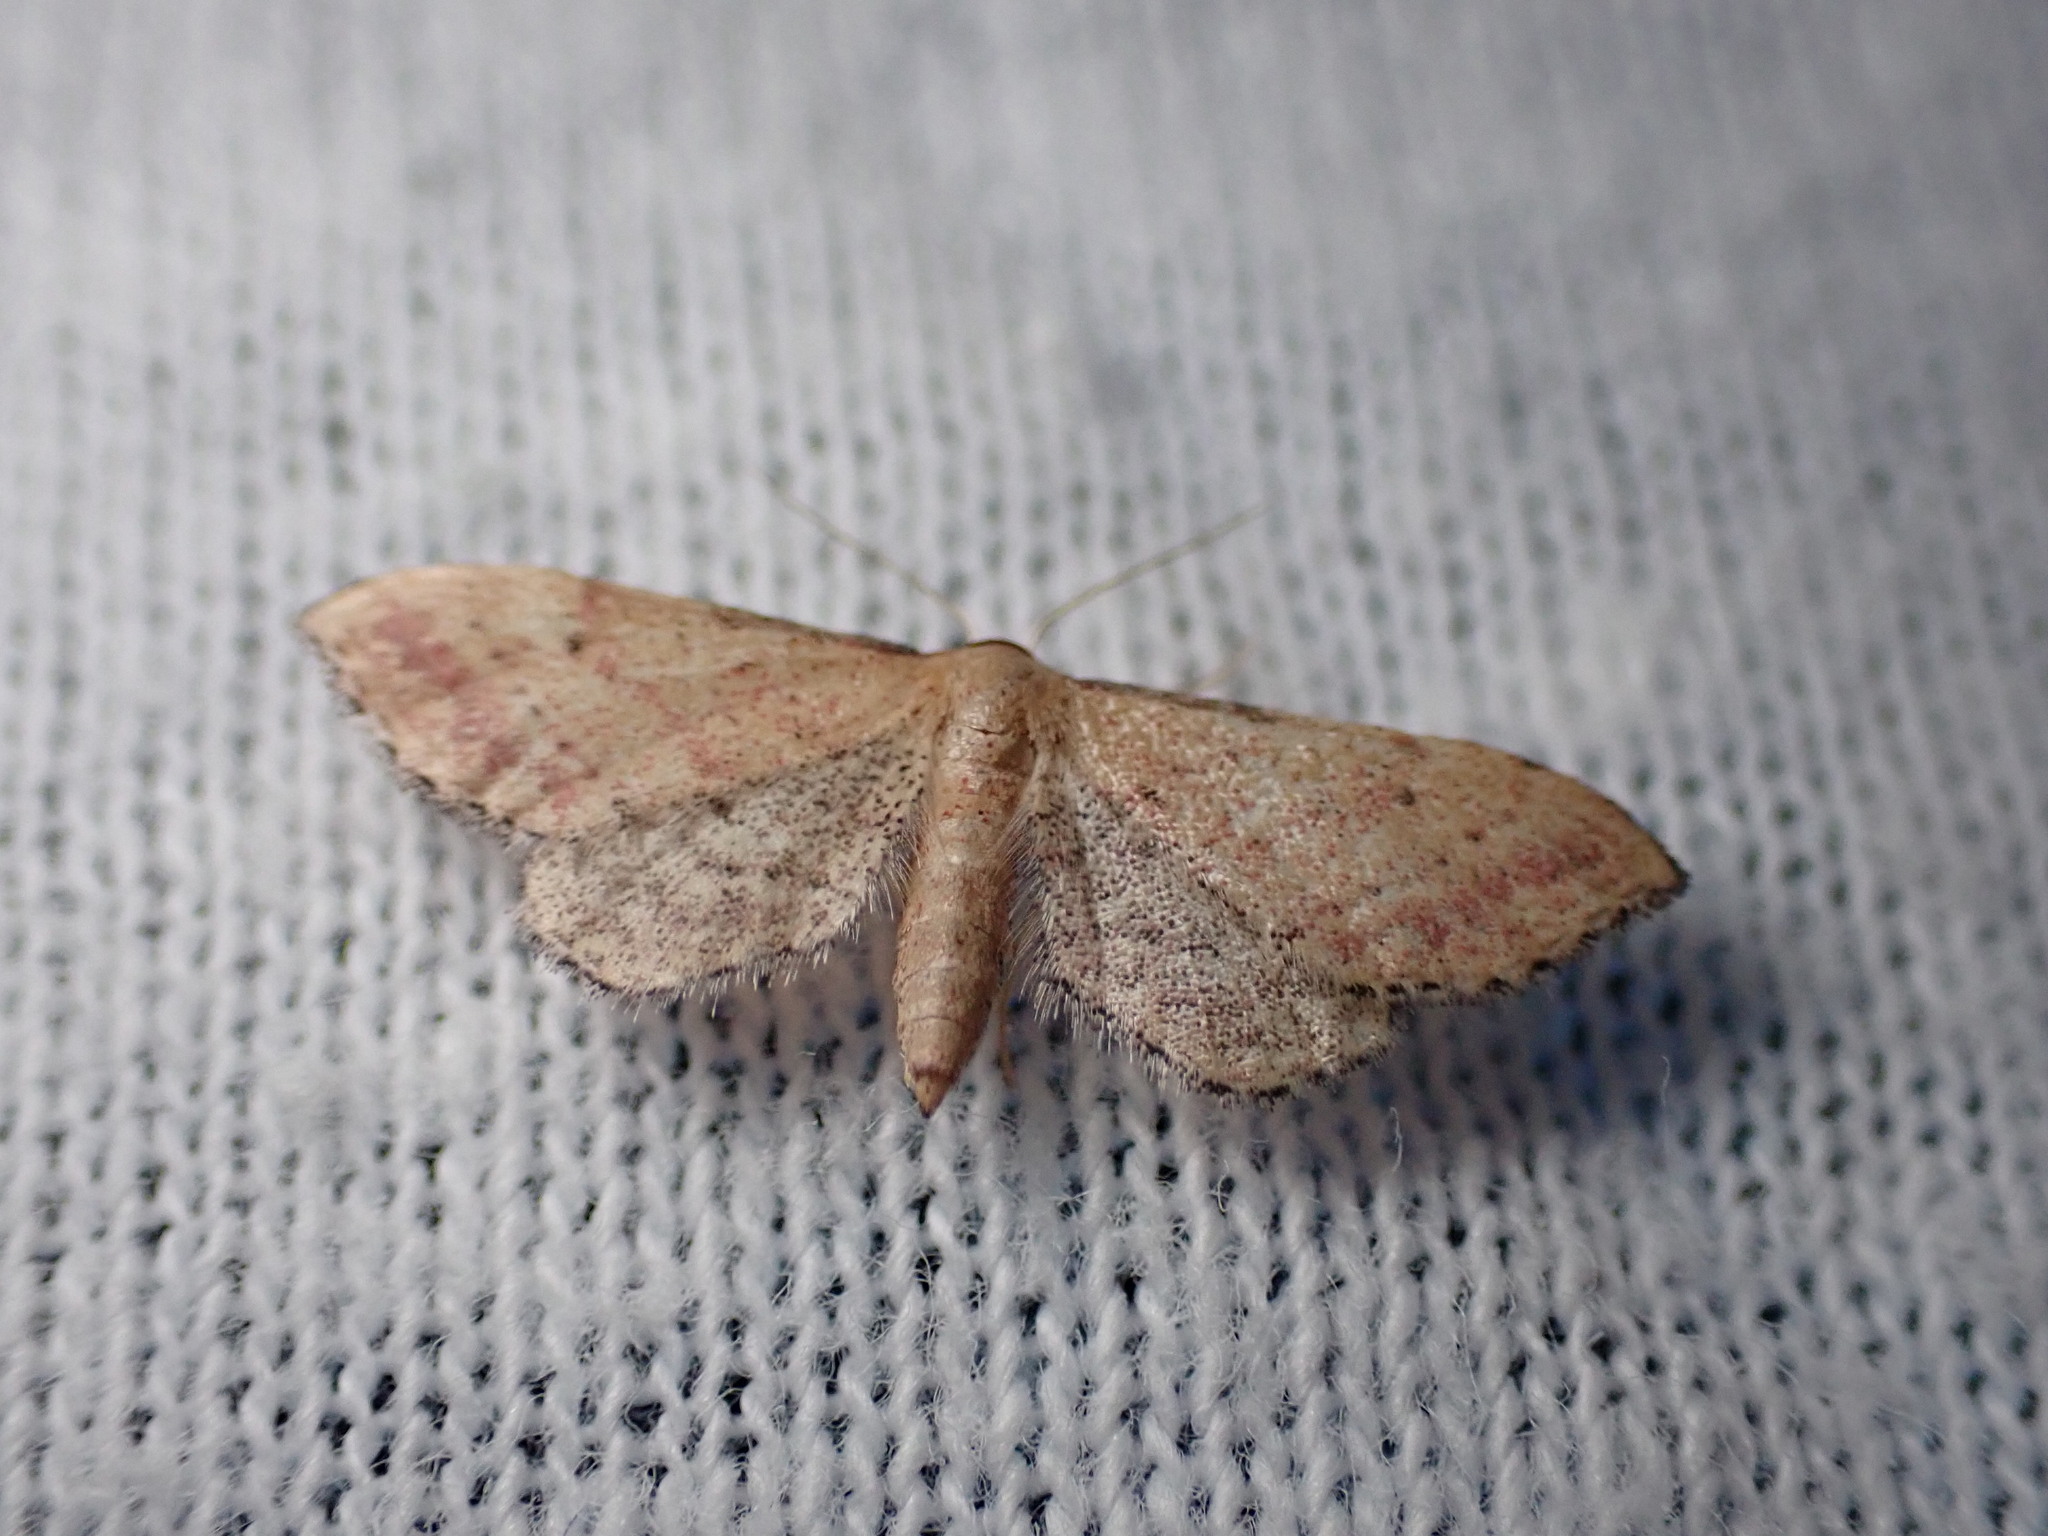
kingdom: Animalia
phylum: Arthropoda
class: Insecta
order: Lepidoptera
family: Geometridae
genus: Idaea
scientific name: Idaea infirmaria
